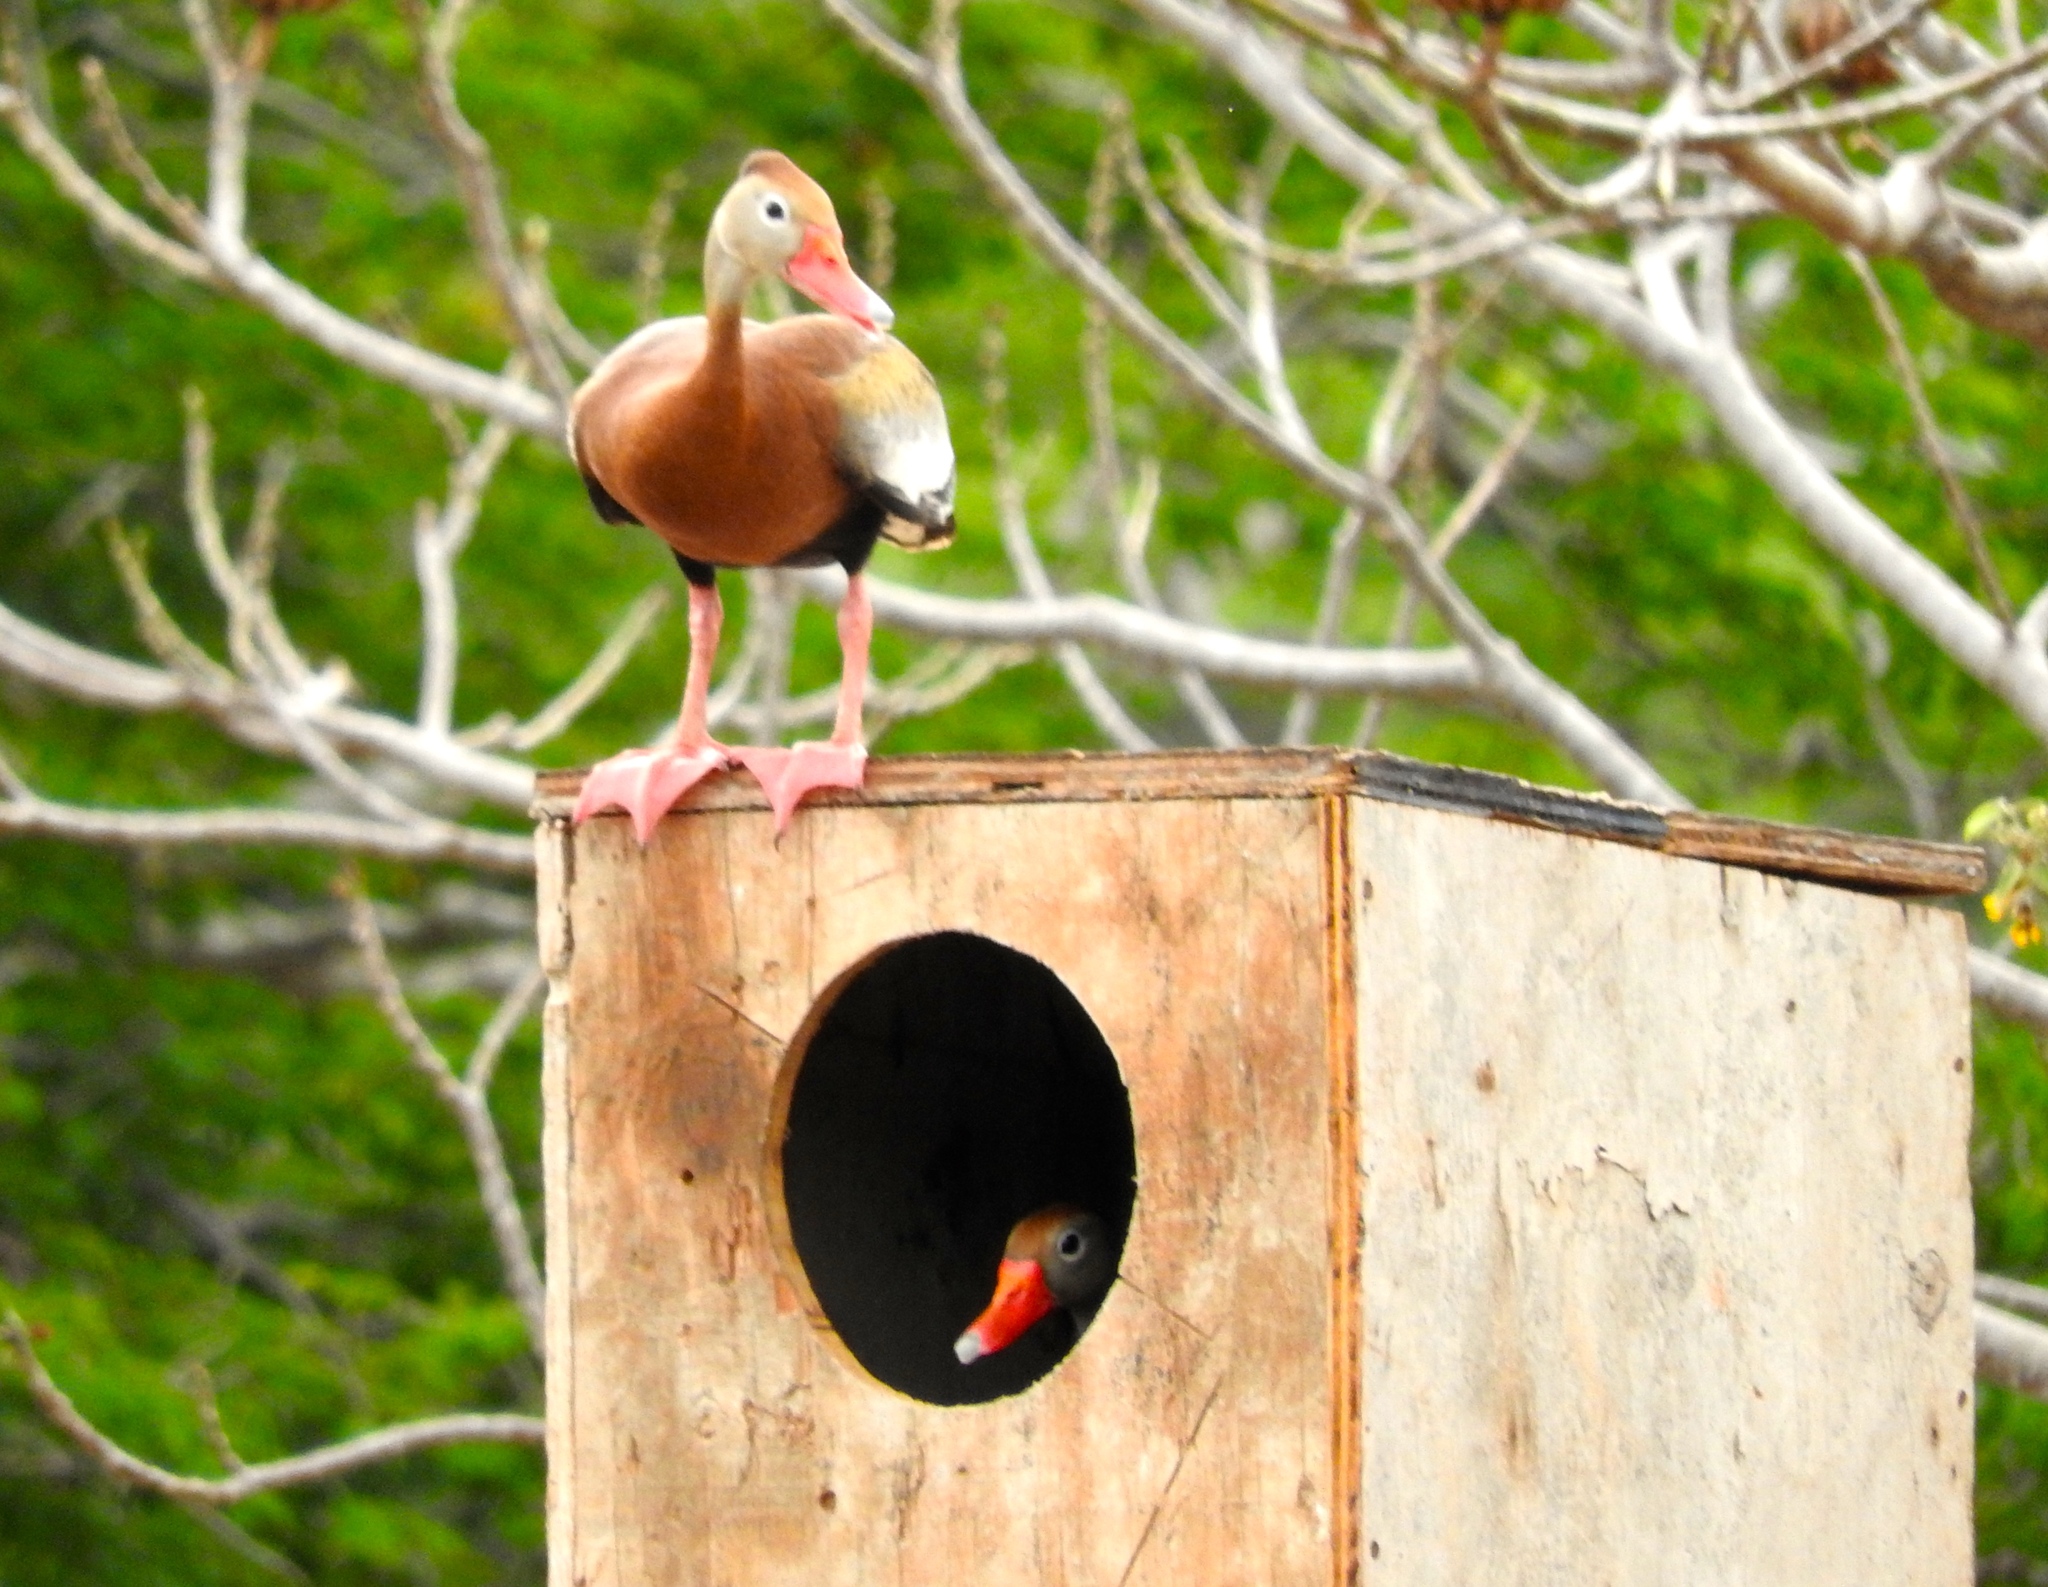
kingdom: Animalia
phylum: Chordata
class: Aves
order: Anseriformes
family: Anatidae
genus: Dendrocygna
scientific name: Dendrocygna autumnalis
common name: Black-bellied whistling duck
